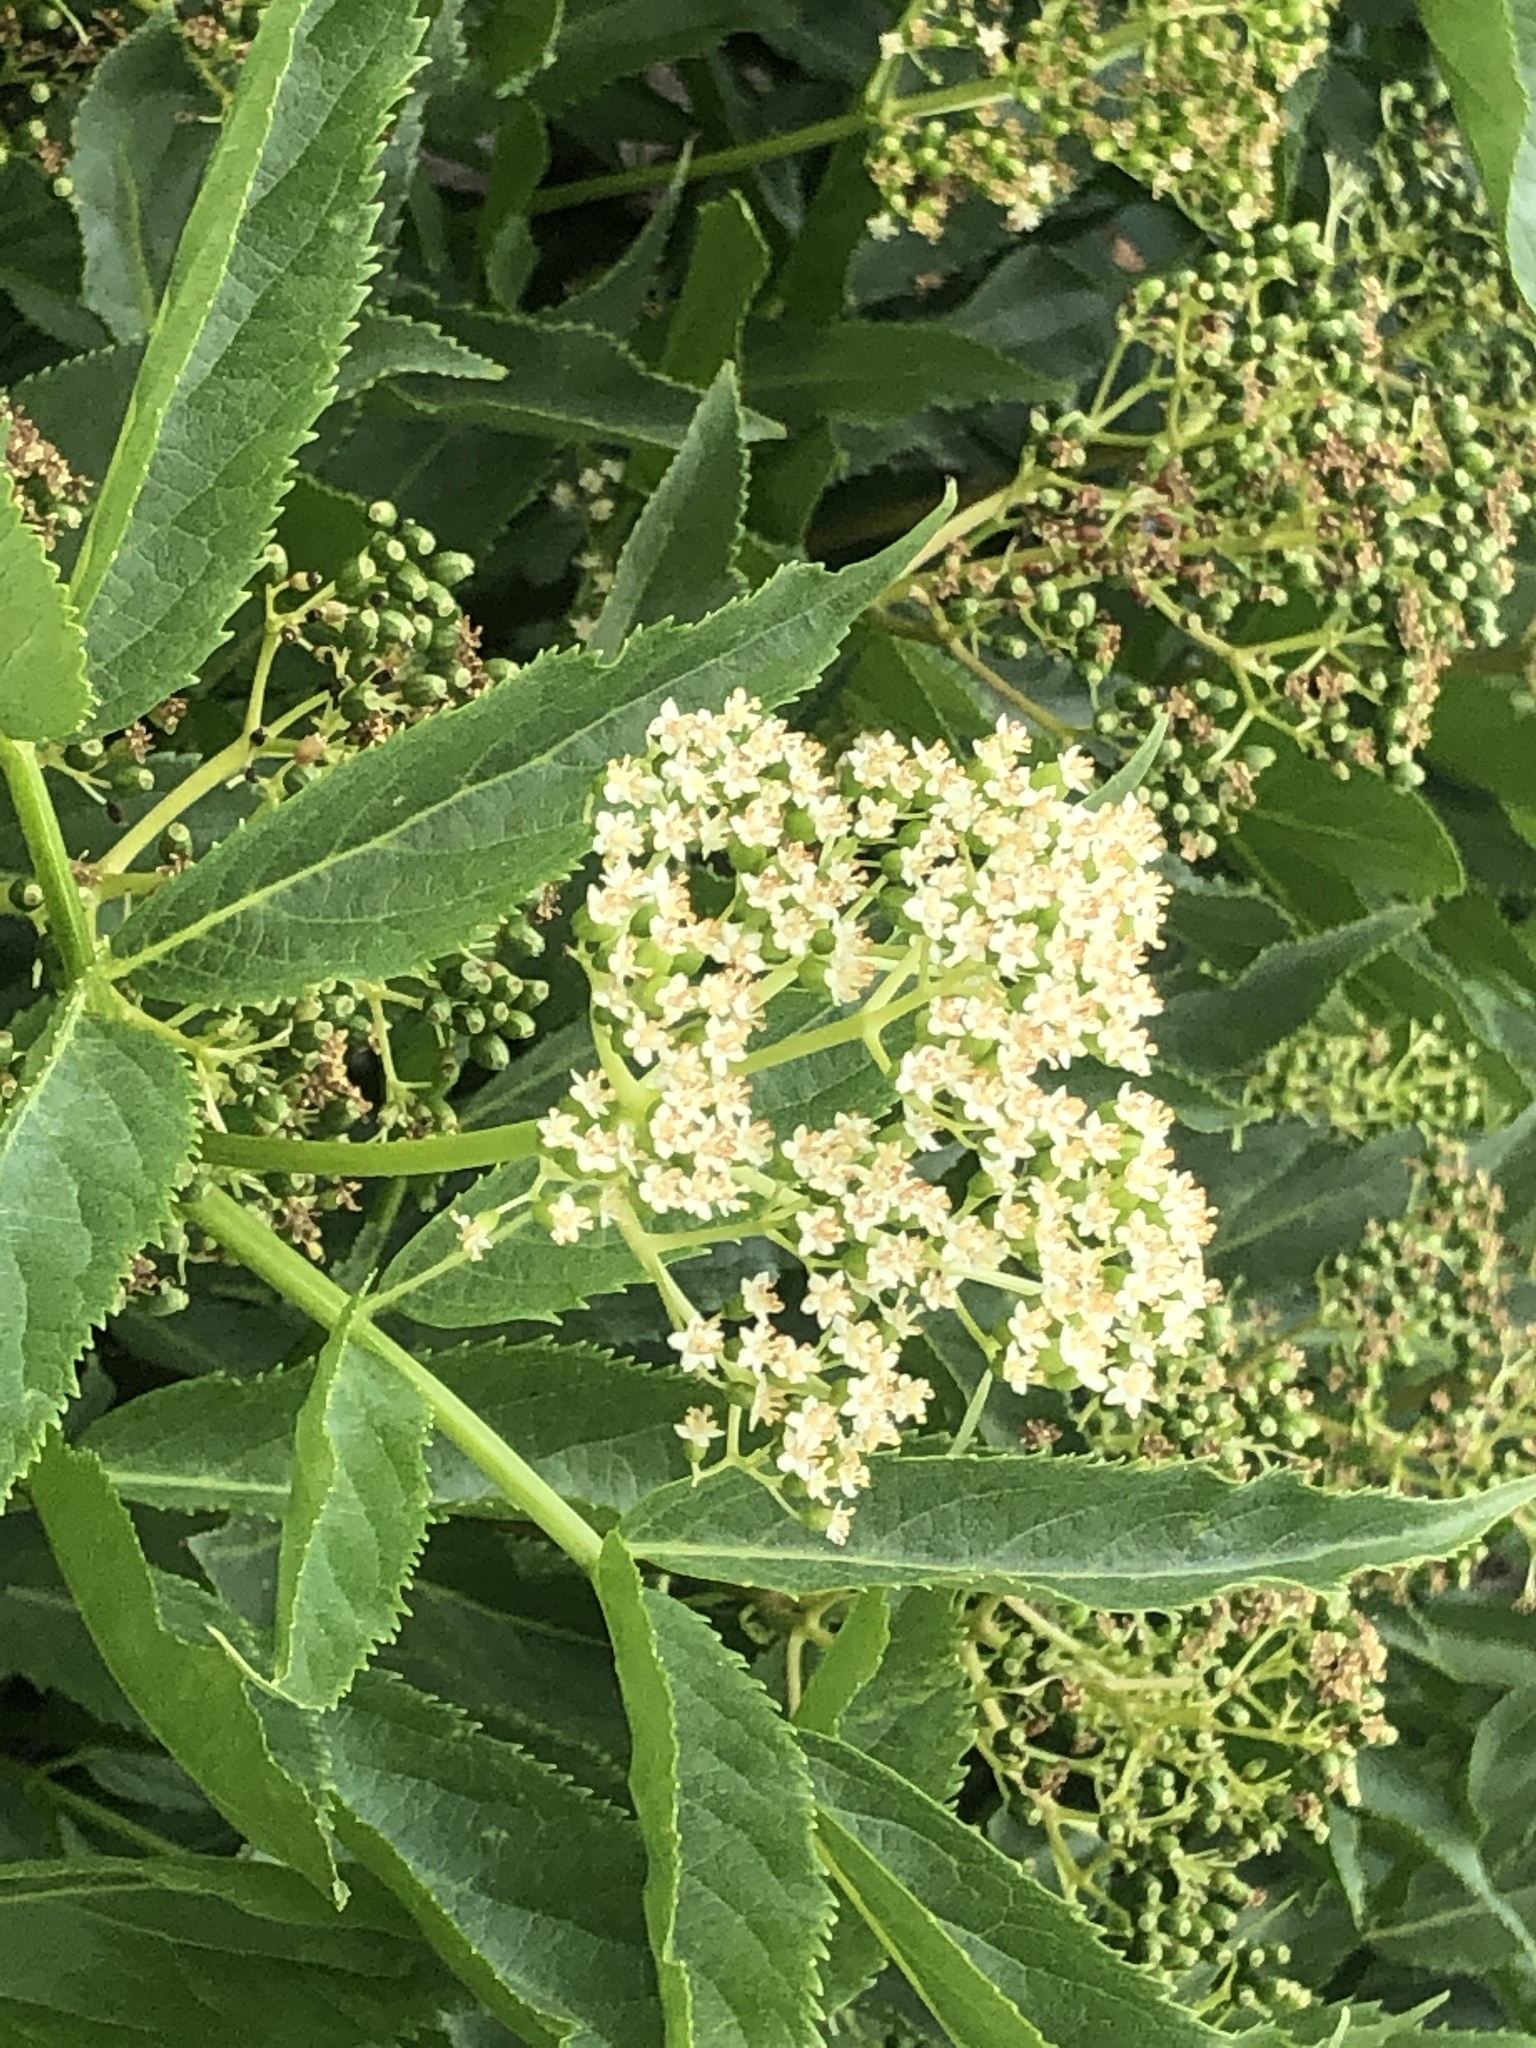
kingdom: Plantae
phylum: Tracheophyta
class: Magnoliopsida
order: Dipsacales
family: Viburnaceae
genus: Sambucus
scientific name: Sambucus racemosa
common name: Red-berried elder
